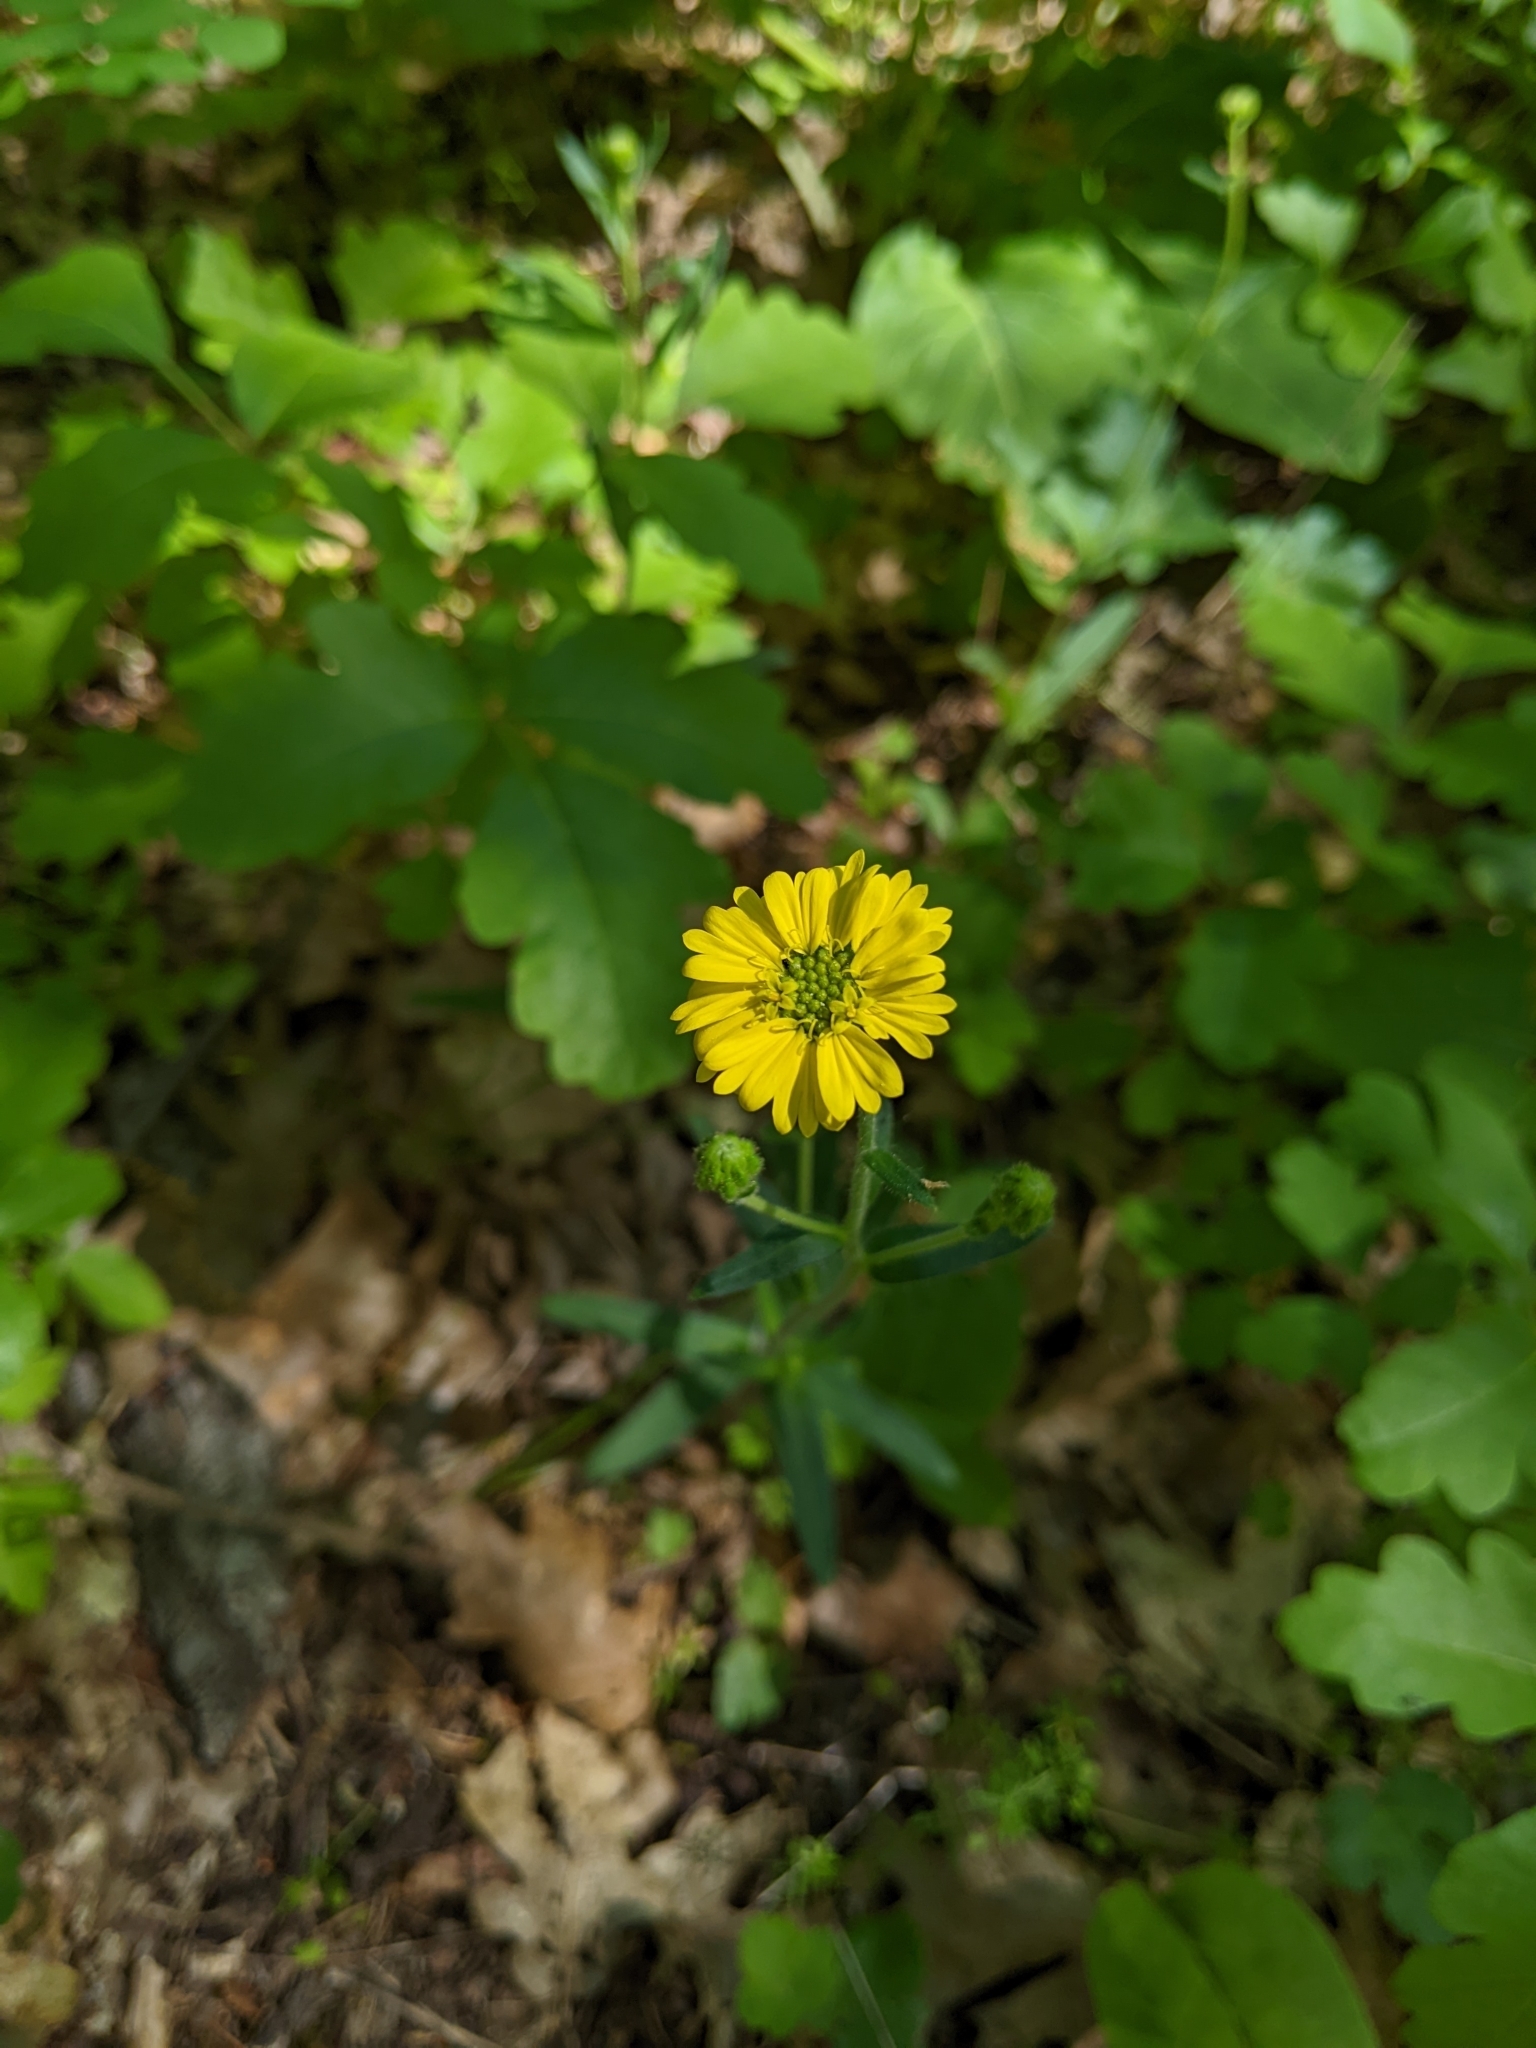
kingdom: Plantae
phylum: Tracheophyta
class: Magnoliopsida
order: Asterales
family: Asteraceae
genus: Anisocarpus
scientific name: Anisocarpus madioides
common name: Woodland madia
